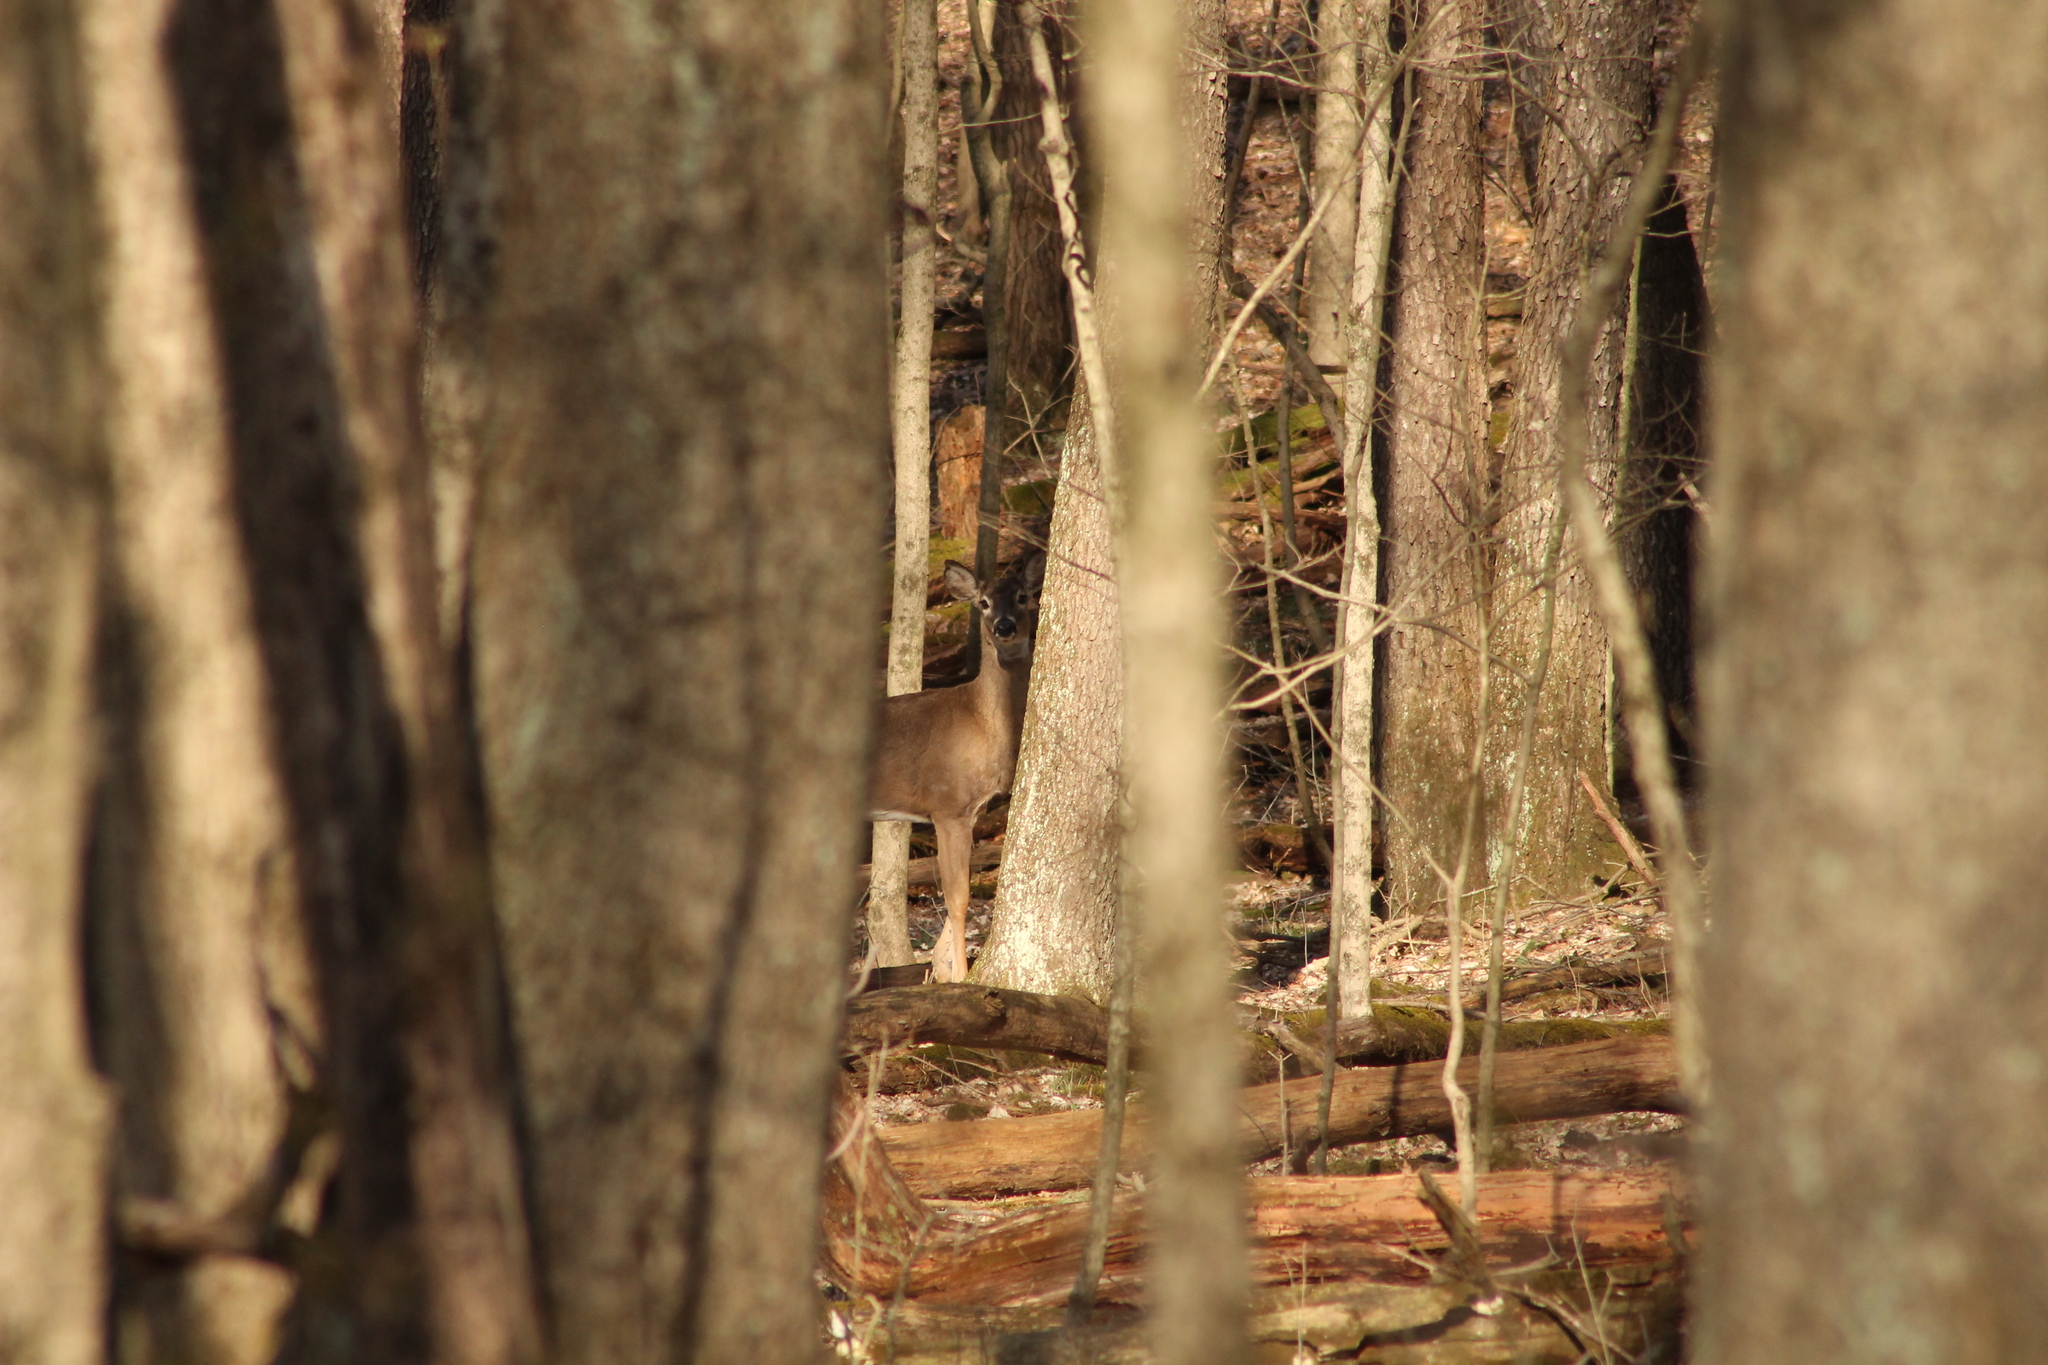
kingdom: Animalia
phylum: Chordata
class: Mammalia
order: Artiodactyla
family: Cervidae
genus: Odocoileus
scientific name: Odocoileus virginianus
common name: White-tailed deer
